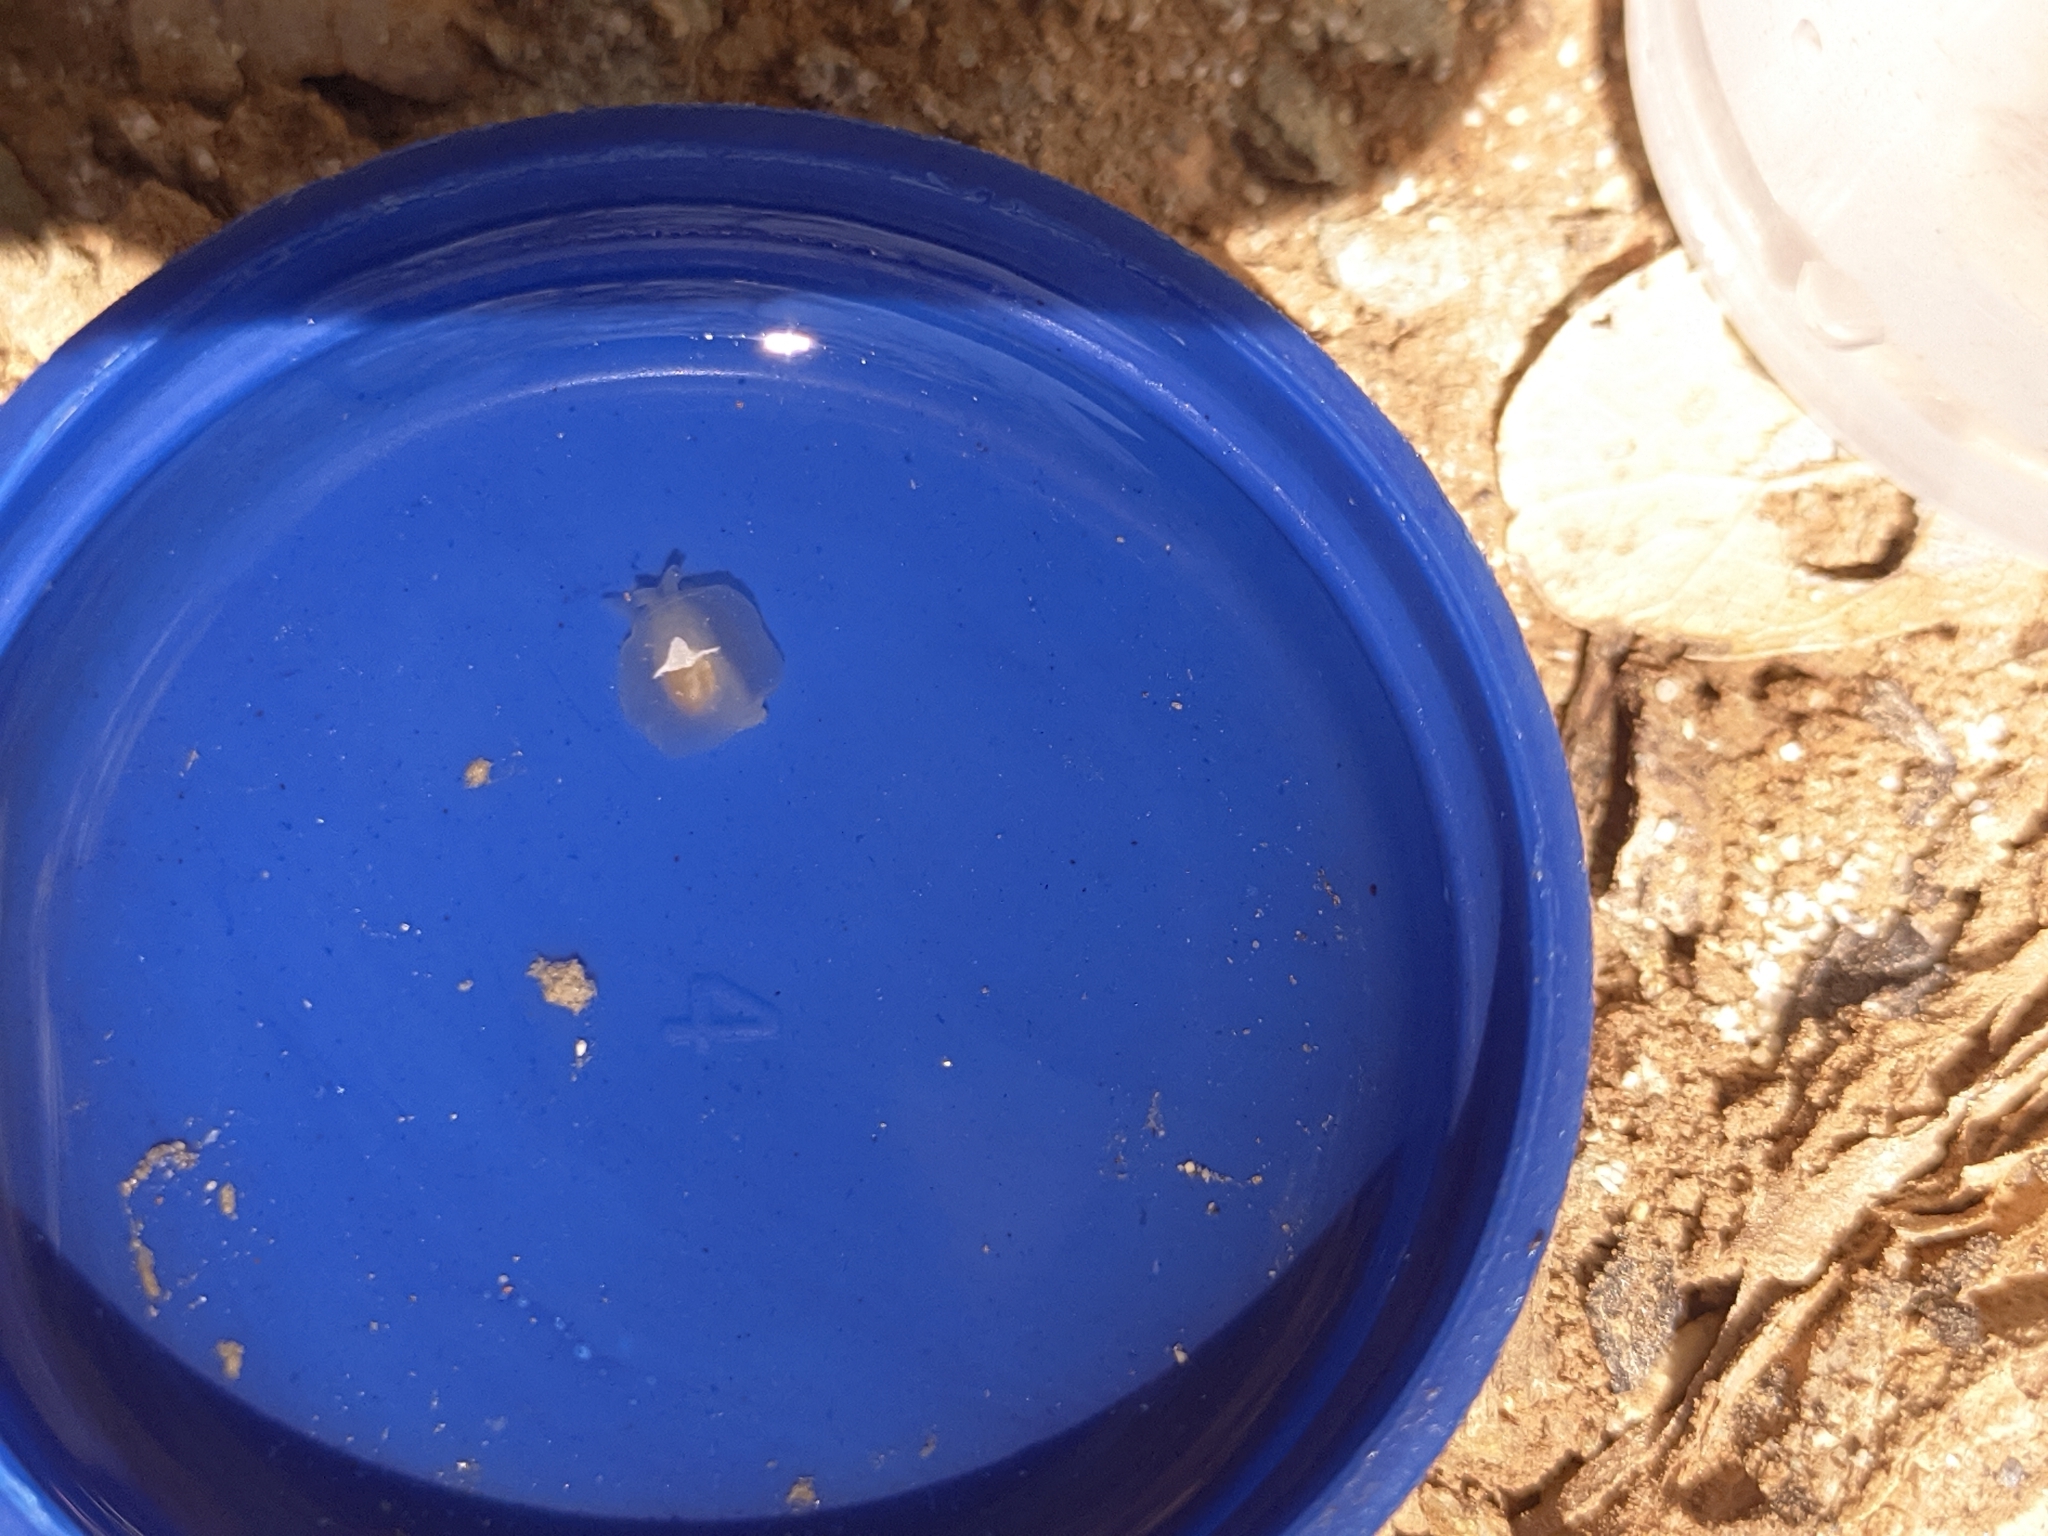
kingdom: Animalia
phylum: Mollusca
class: Gastropoda
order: Pleurobranchida
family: Pleurobranchidae
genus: Pleurehdera
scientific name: Pleurehdera
